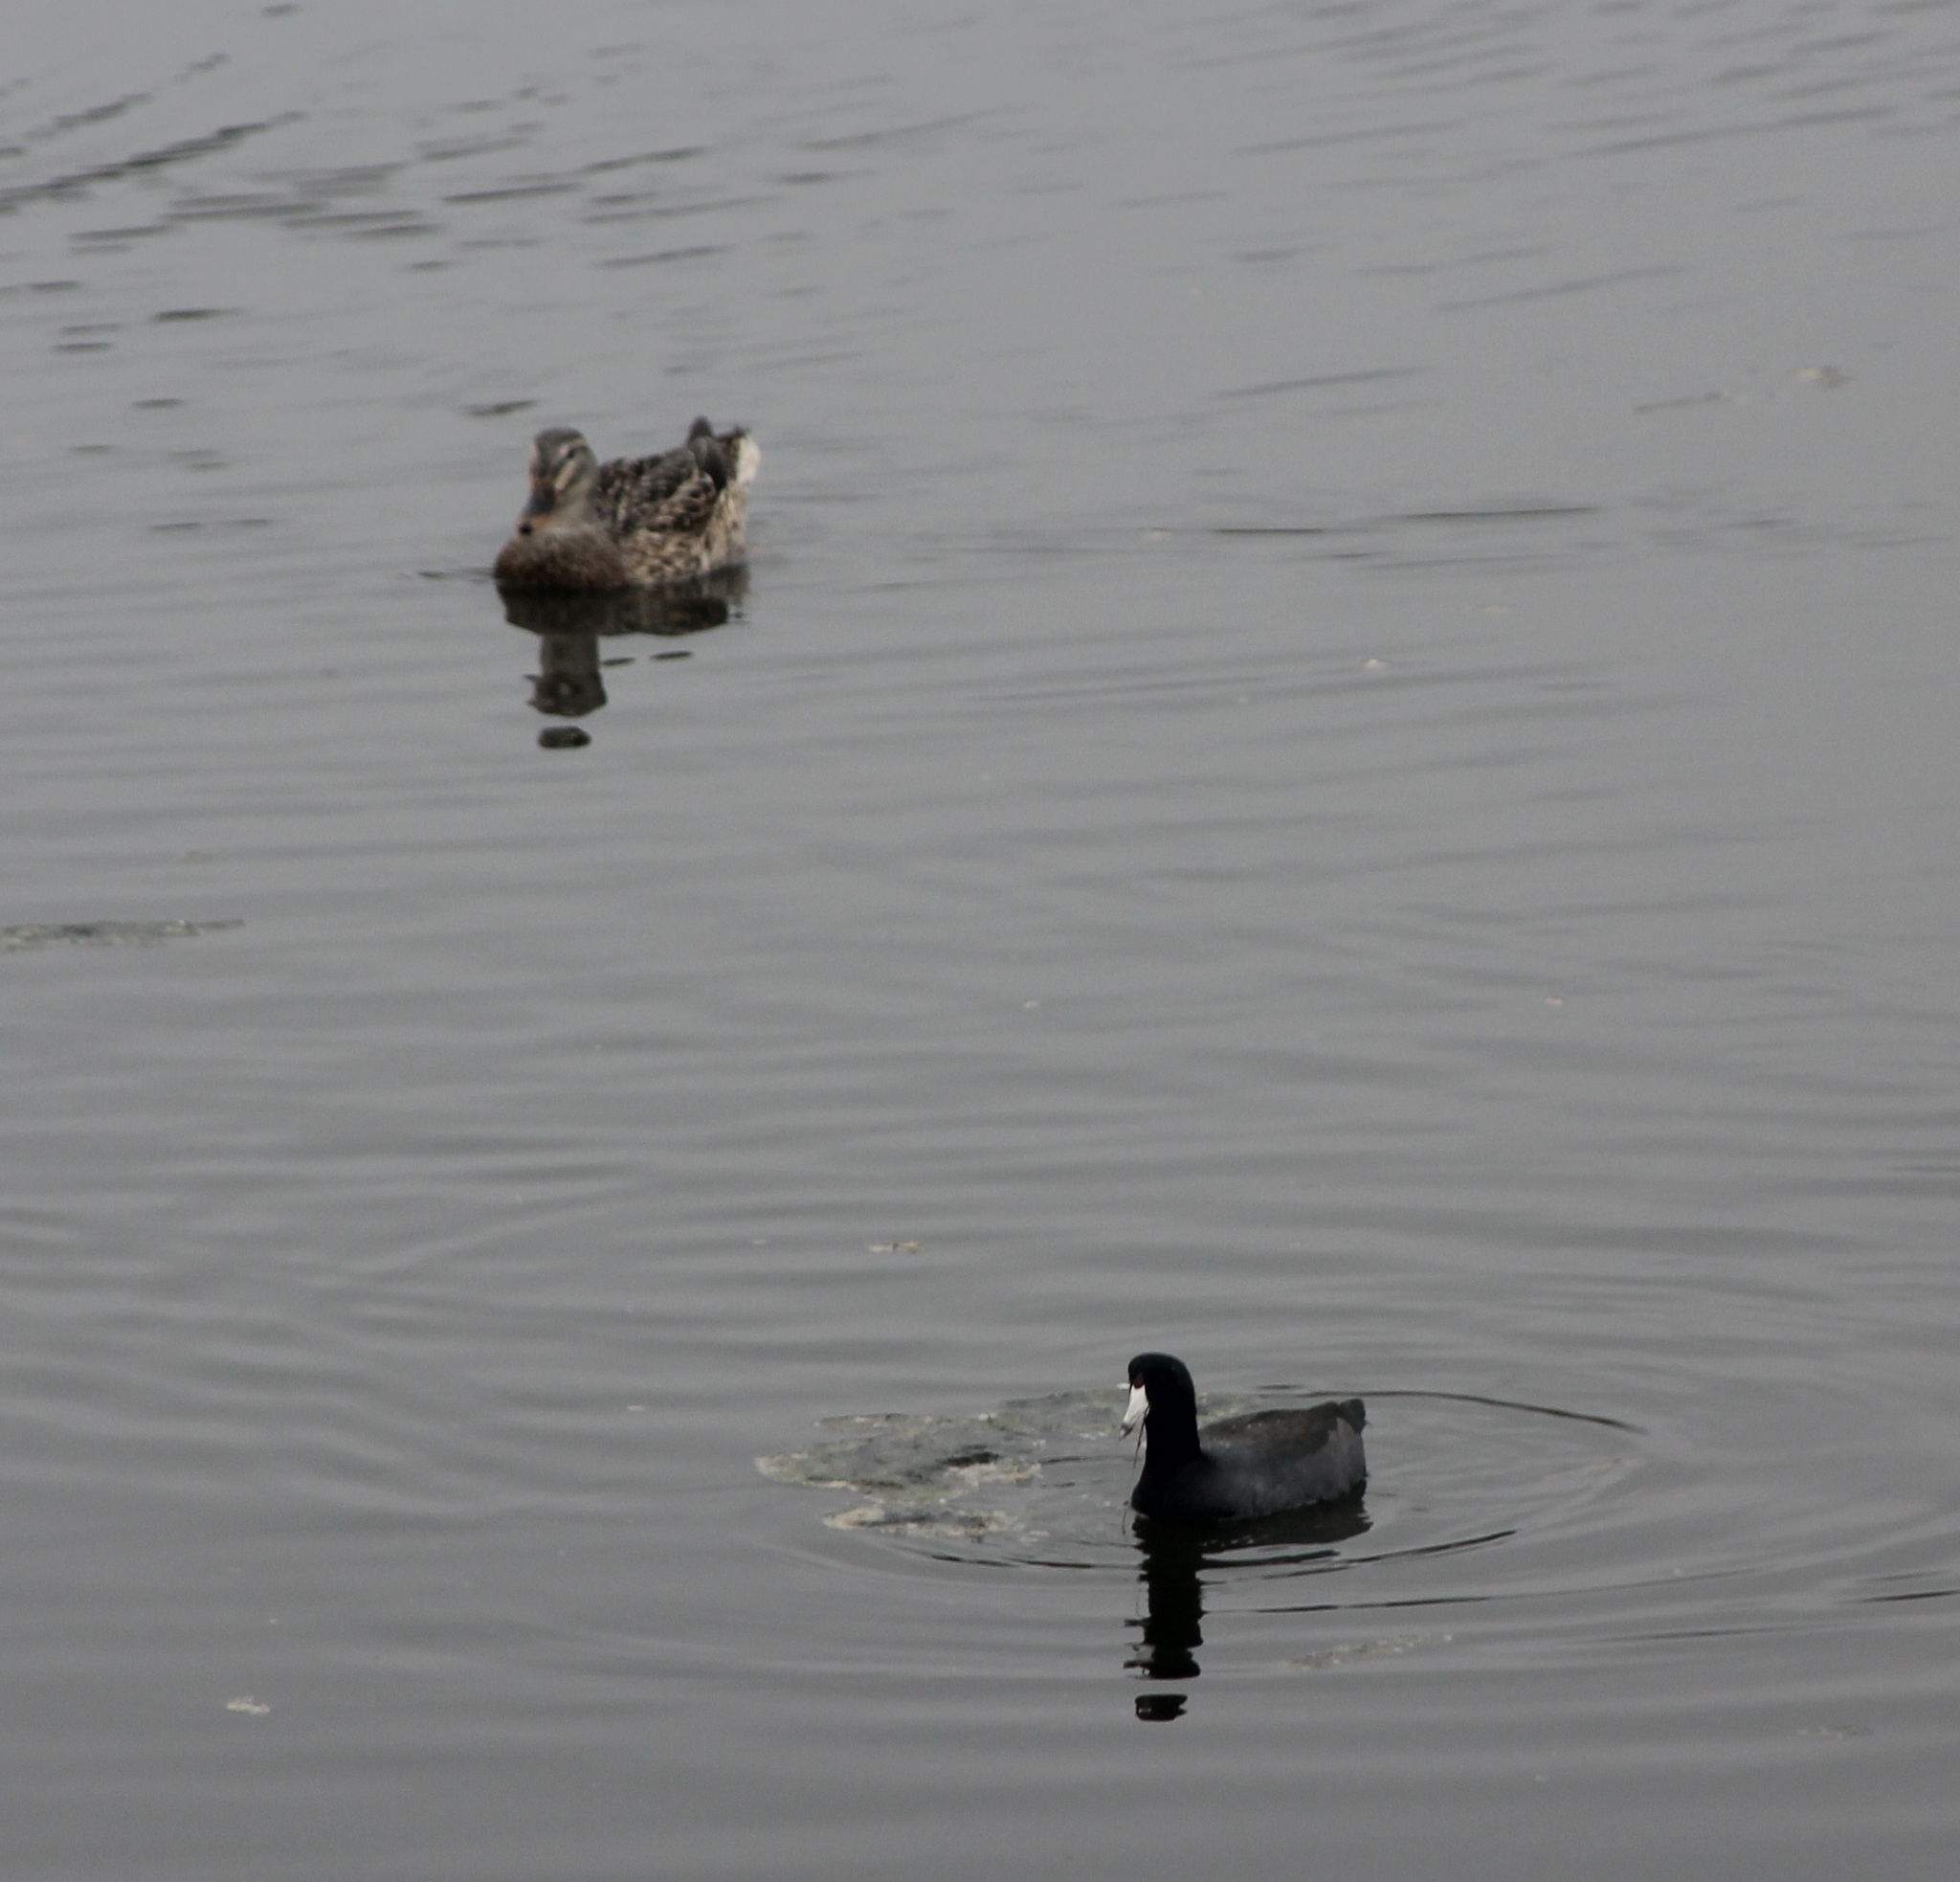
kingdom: Animalia
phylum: Chordata
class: Aves
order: Anseriformes
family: Anatidae
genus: Anas
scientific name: Anas platyrhynchos
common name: Mallard
